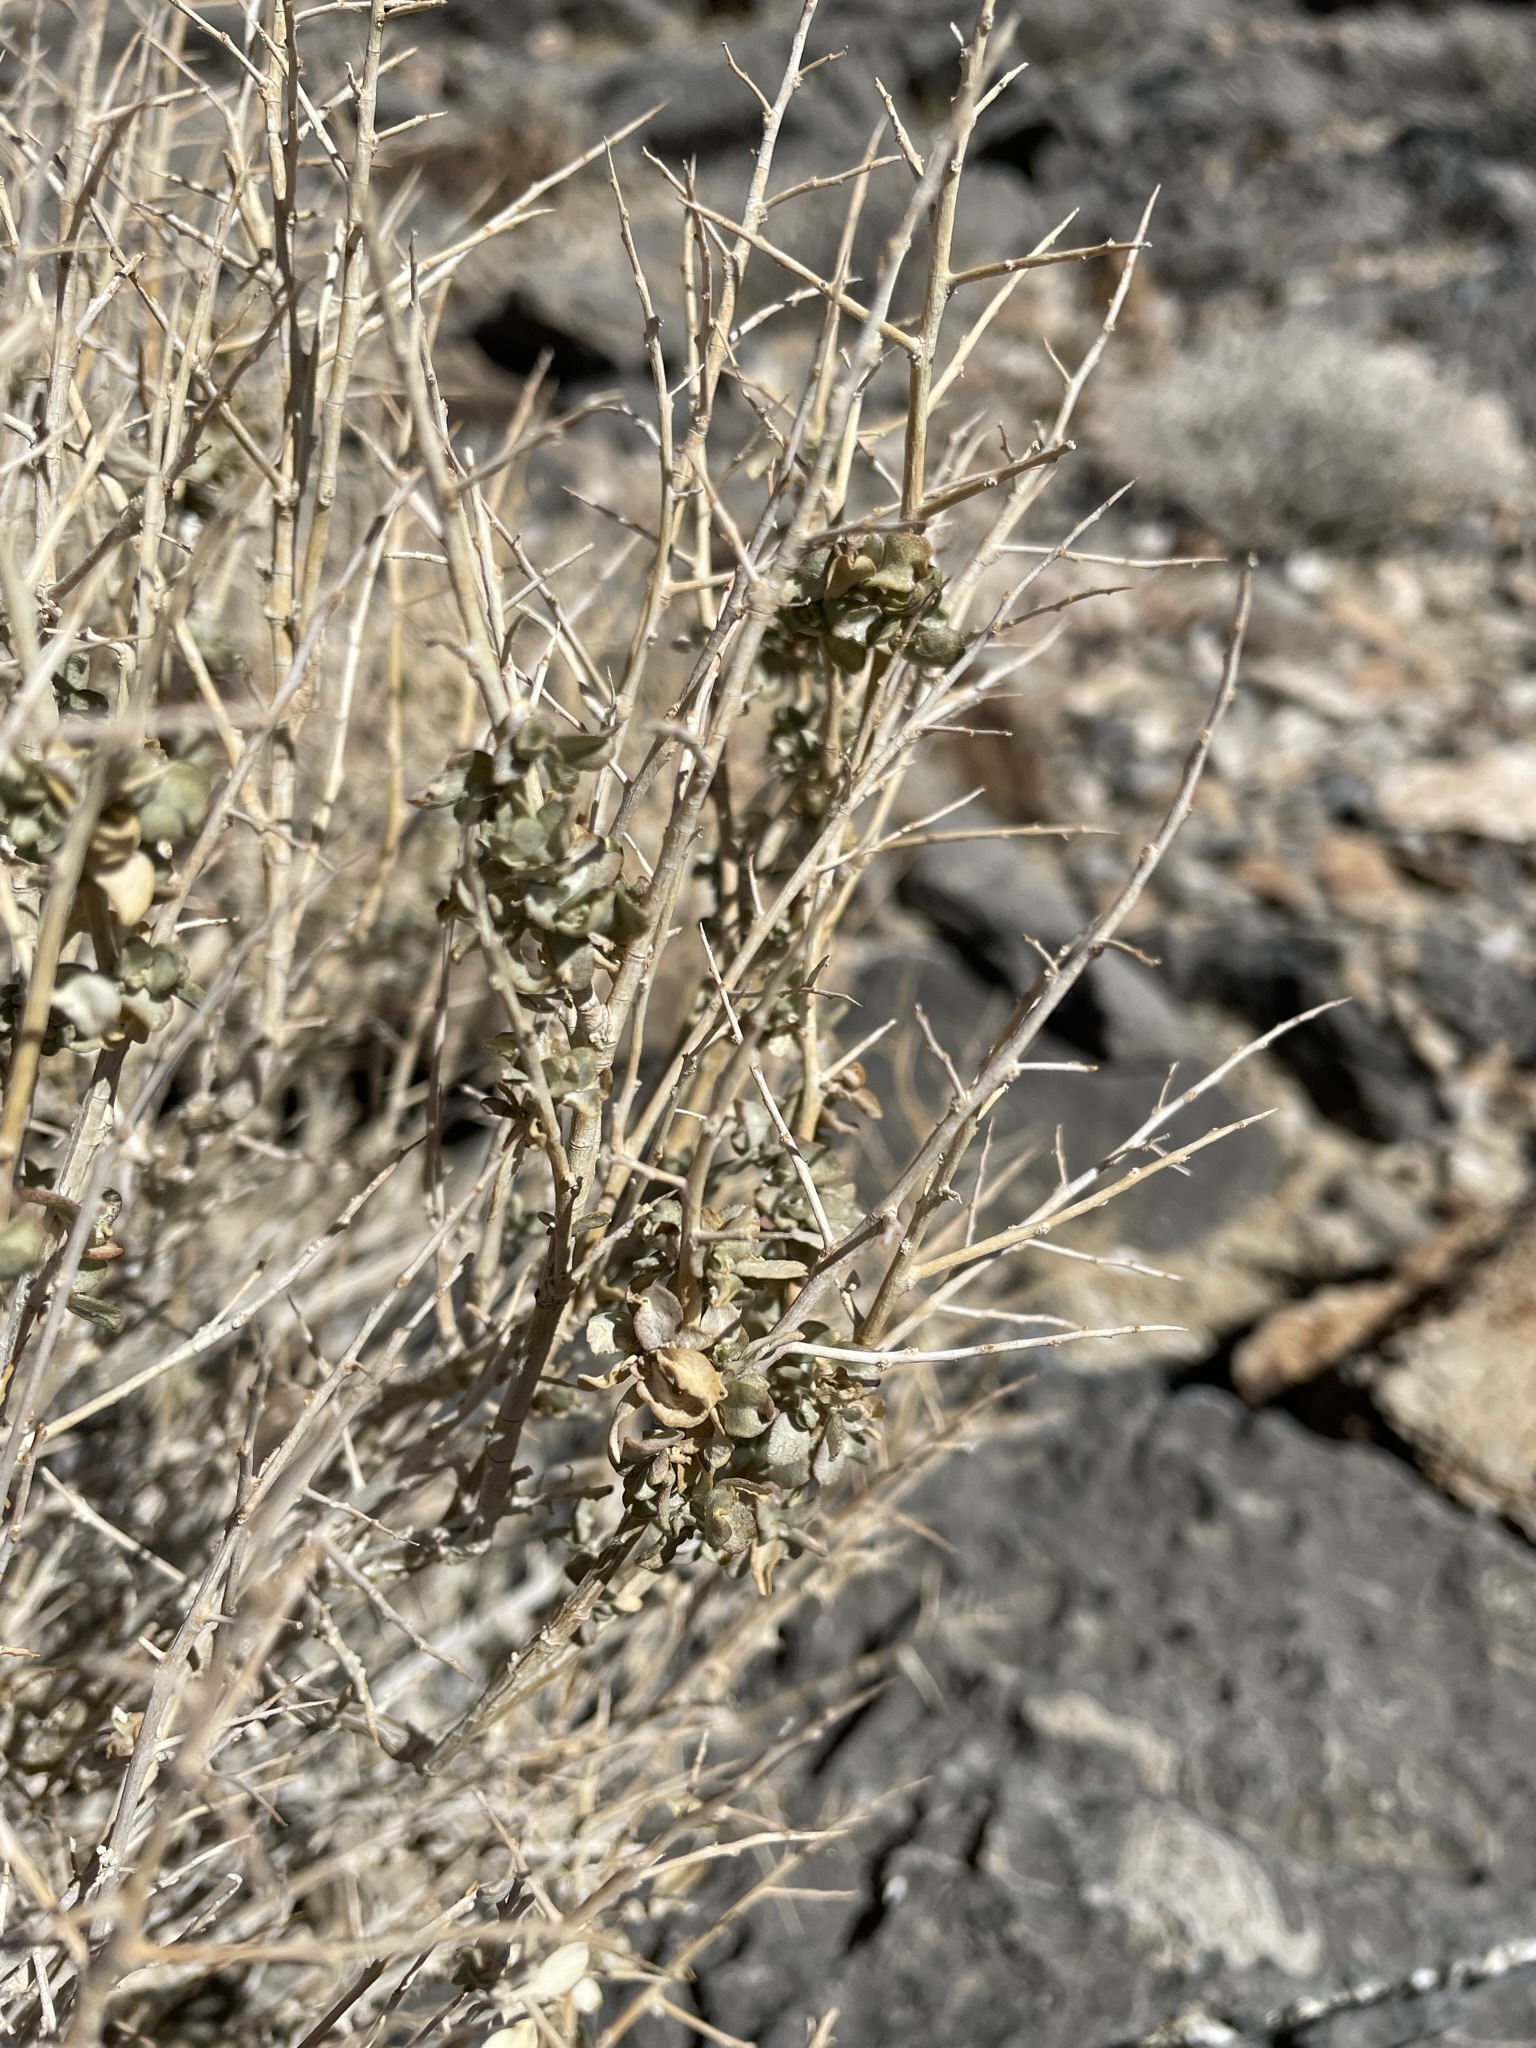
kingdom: Plantae
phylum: Tracheophyta
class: Magnoliopsida
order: Caryophyllales
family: Amaranthaceae
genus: Atriplex
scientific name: Atriplex confertifolia
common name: Shadscale
